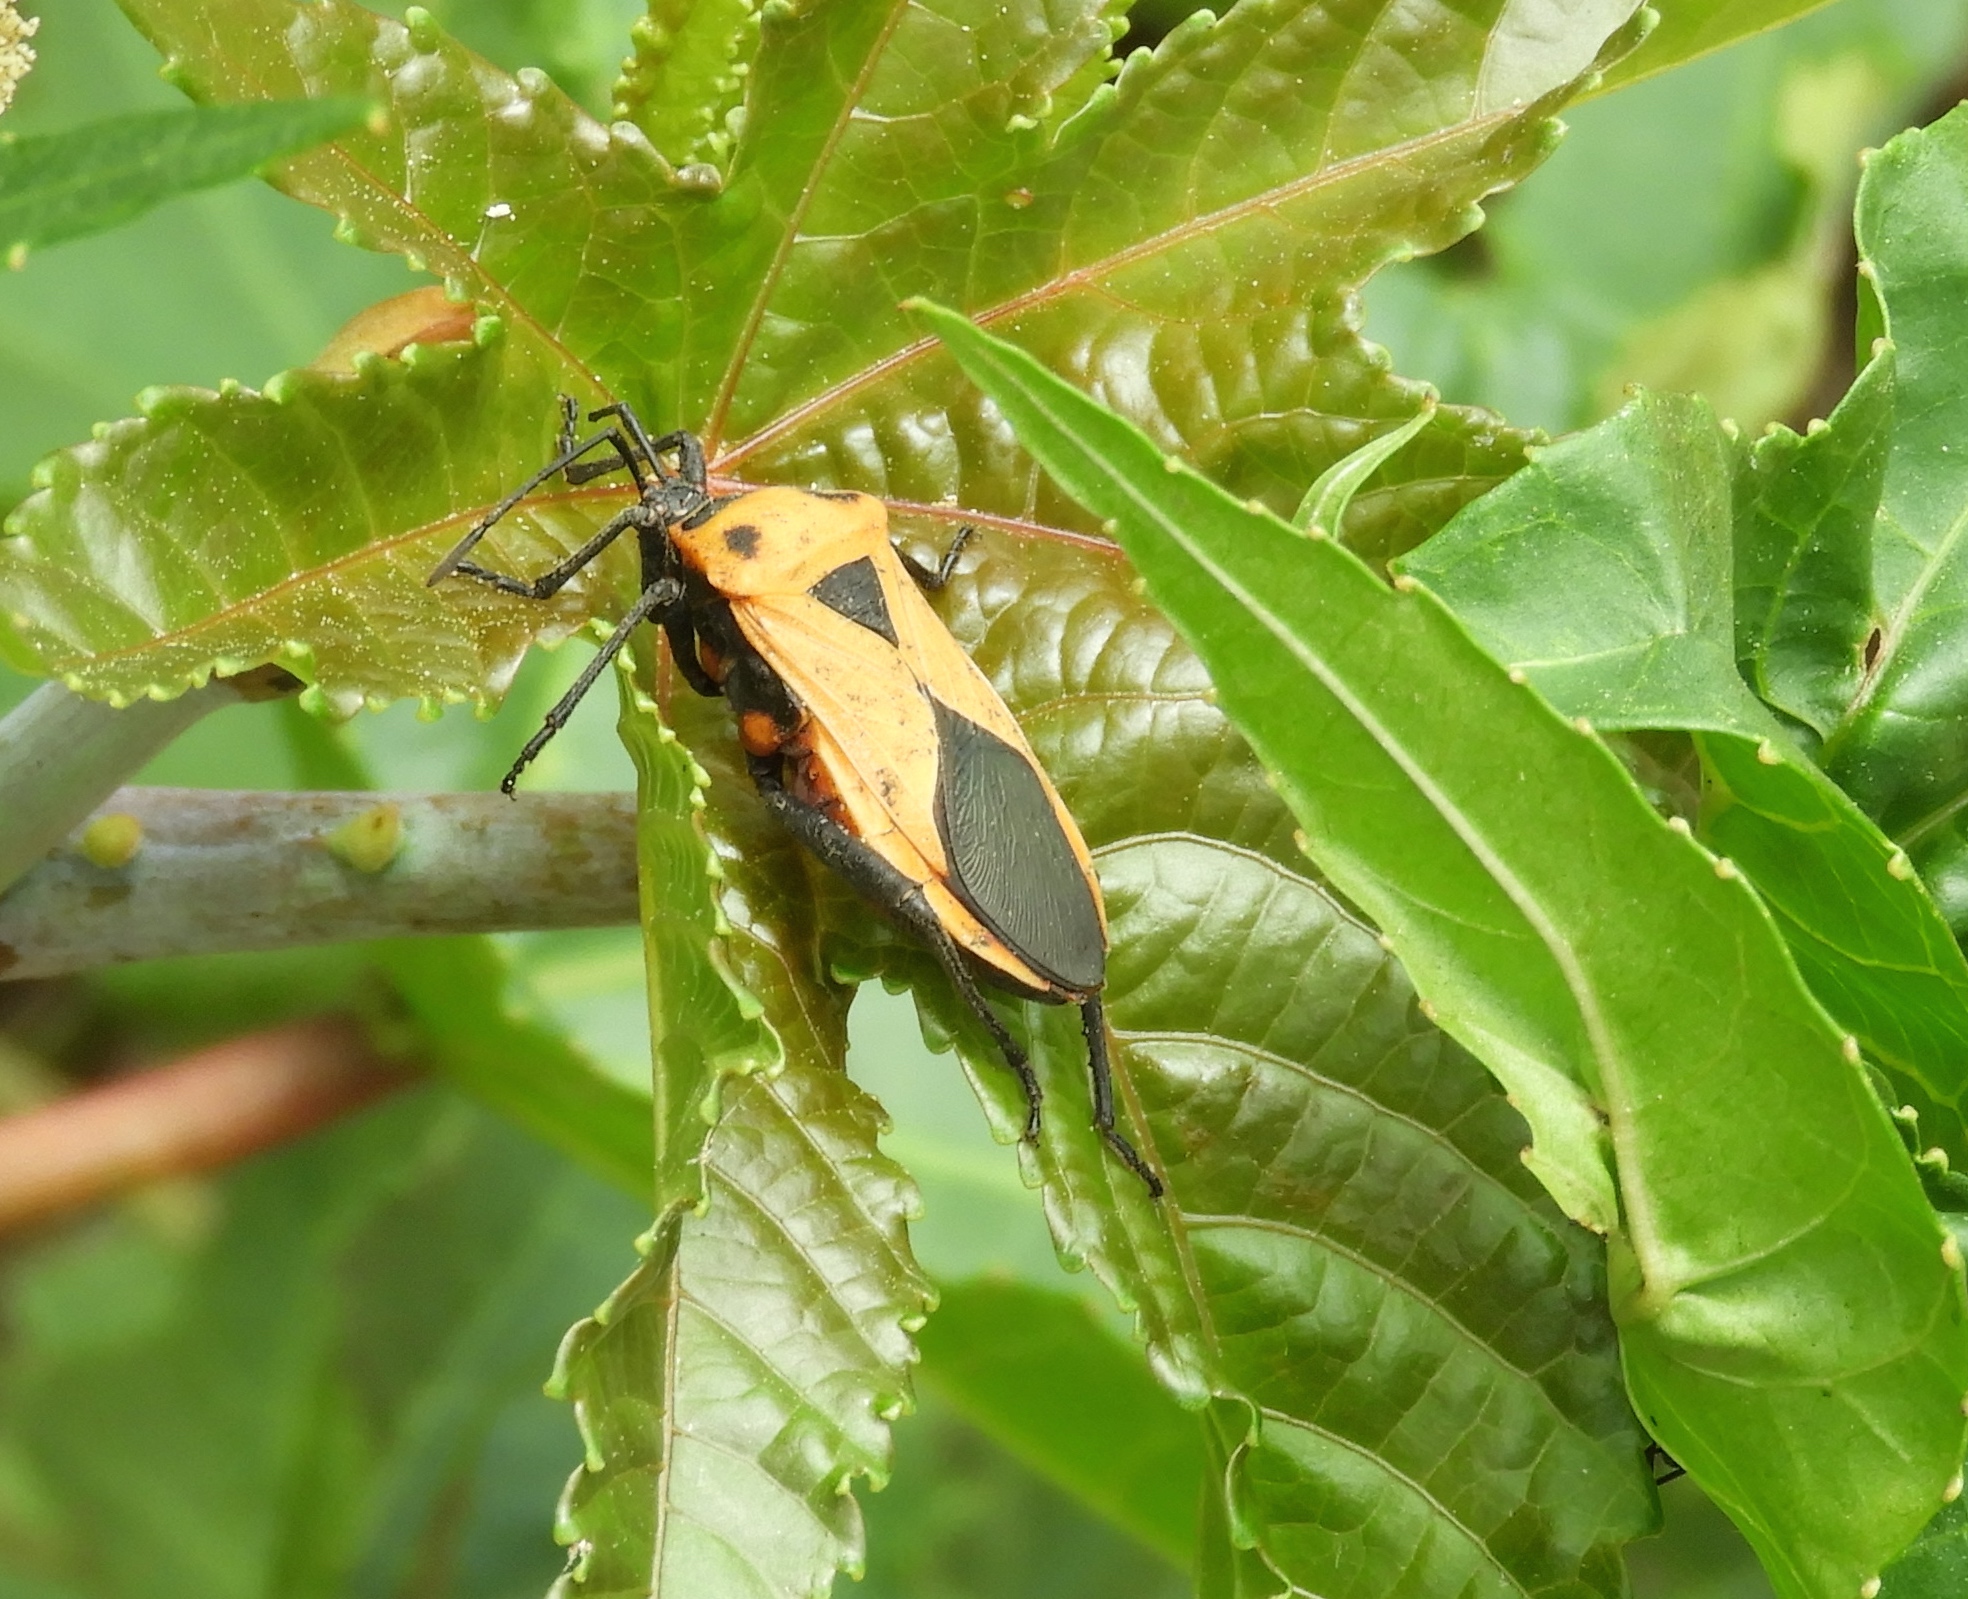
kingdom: Animalia
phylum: Arthropoda
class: Insecta
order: Hemiptera
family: Coreidae
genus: Sagotylus
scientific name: Sagotylus confluens
